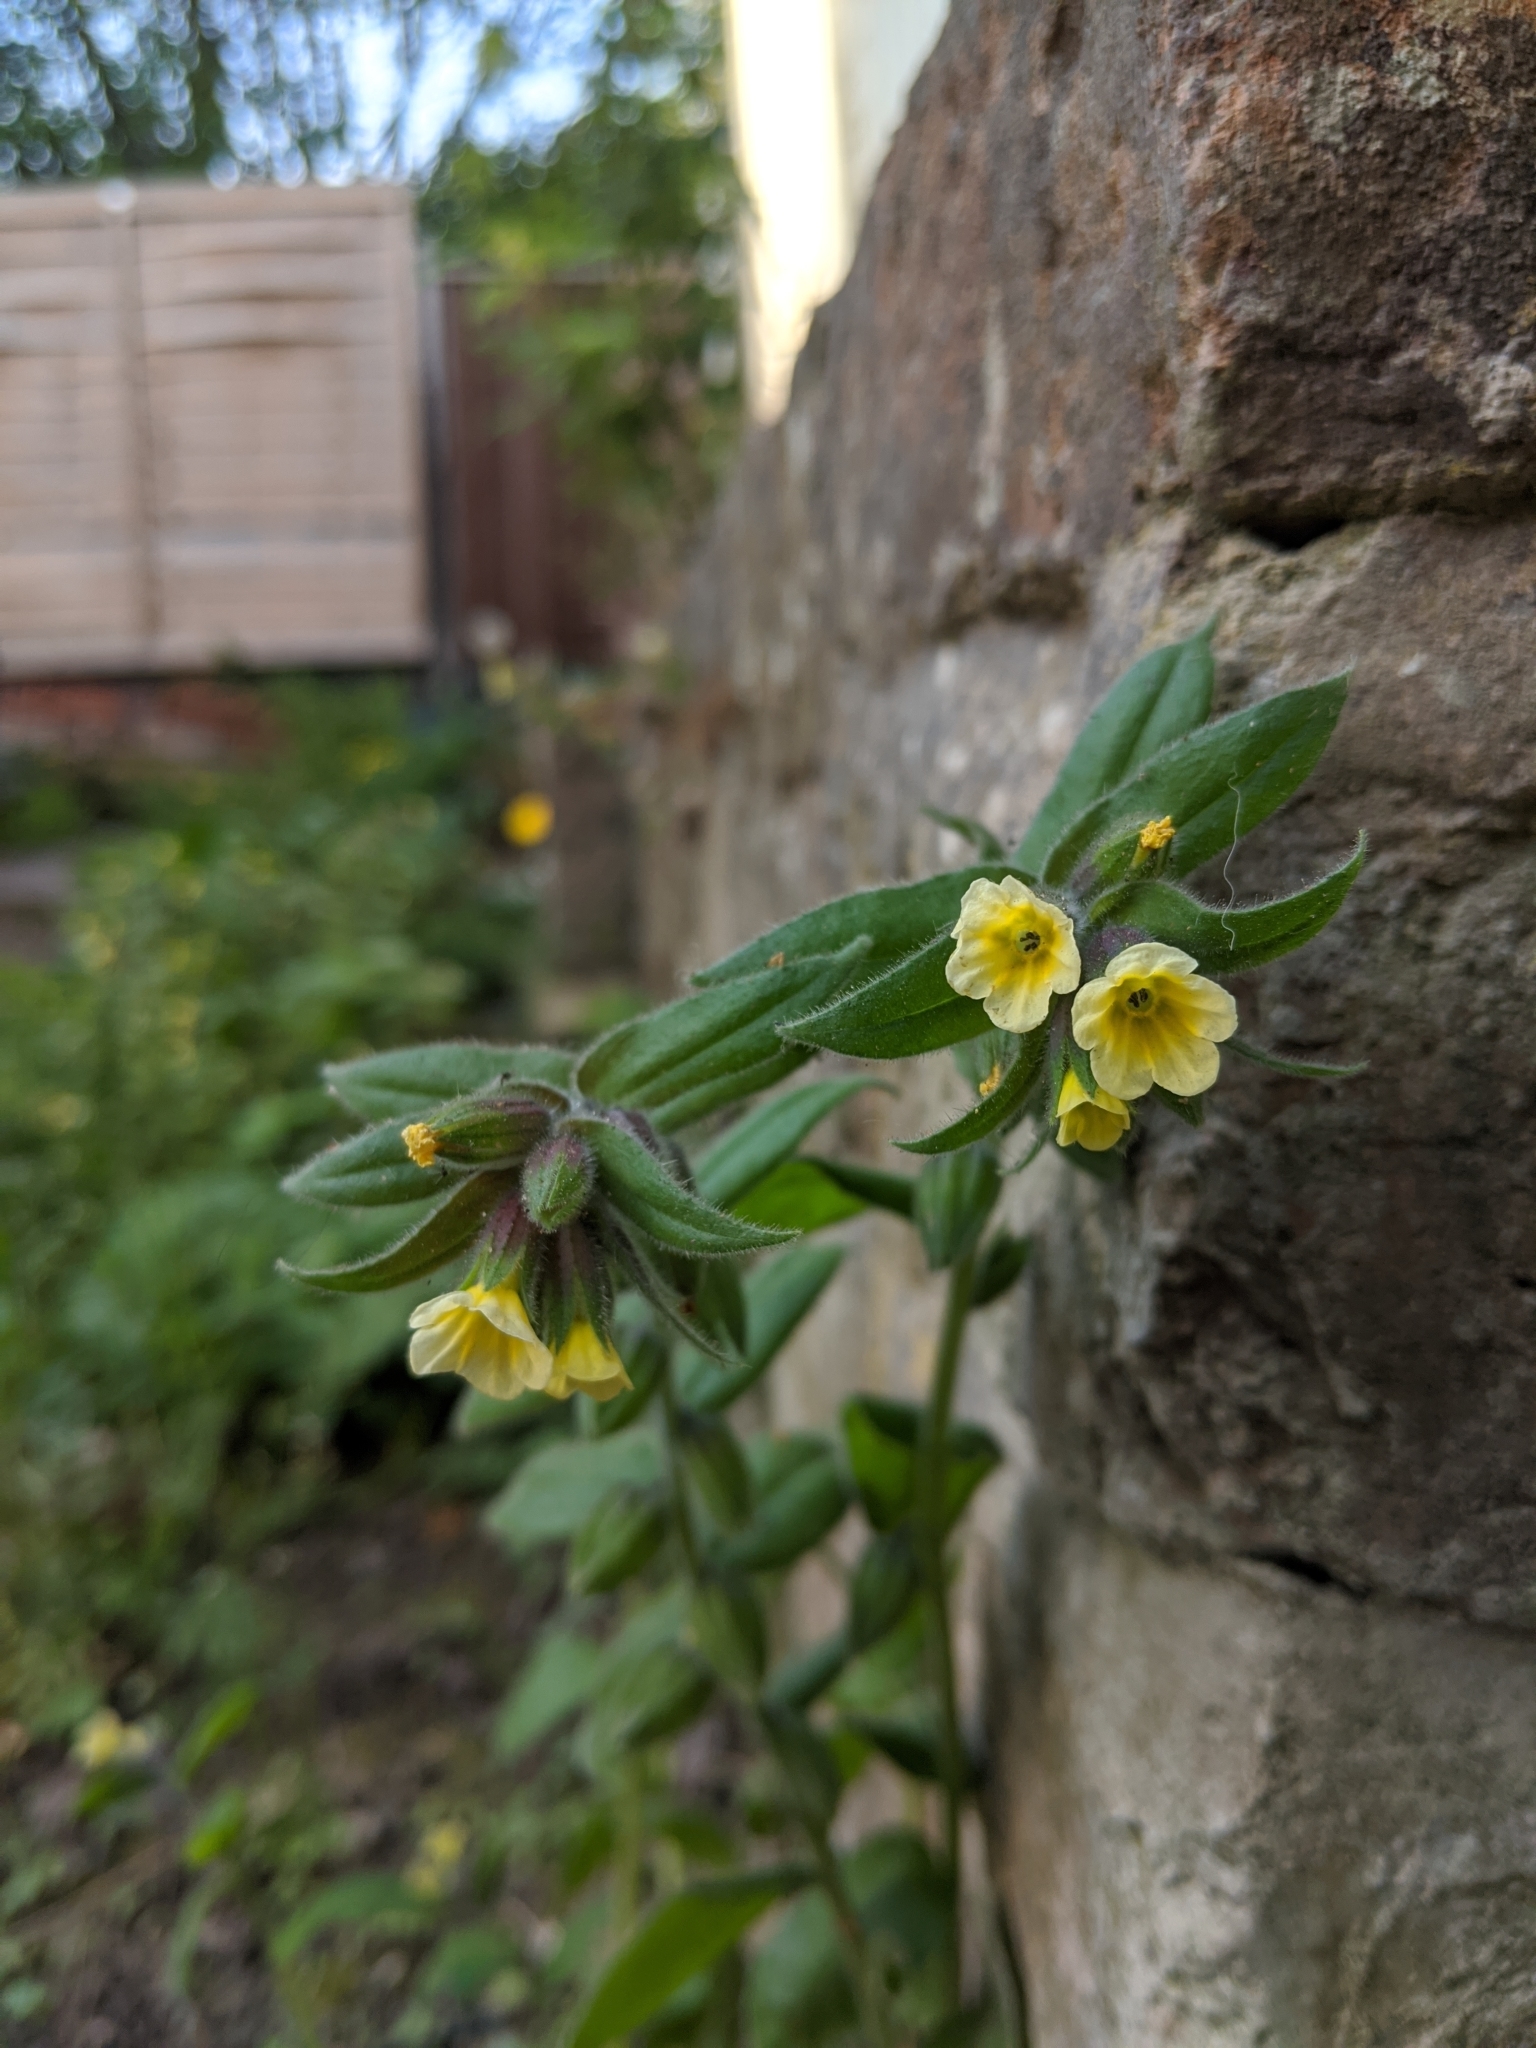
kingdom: Plantae
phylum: Tracheophyta
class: Magnoliopsida
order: Boraginales
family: Boraginaceae
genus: Nonea
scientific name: Nonea lutea
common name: Yellow nonea
